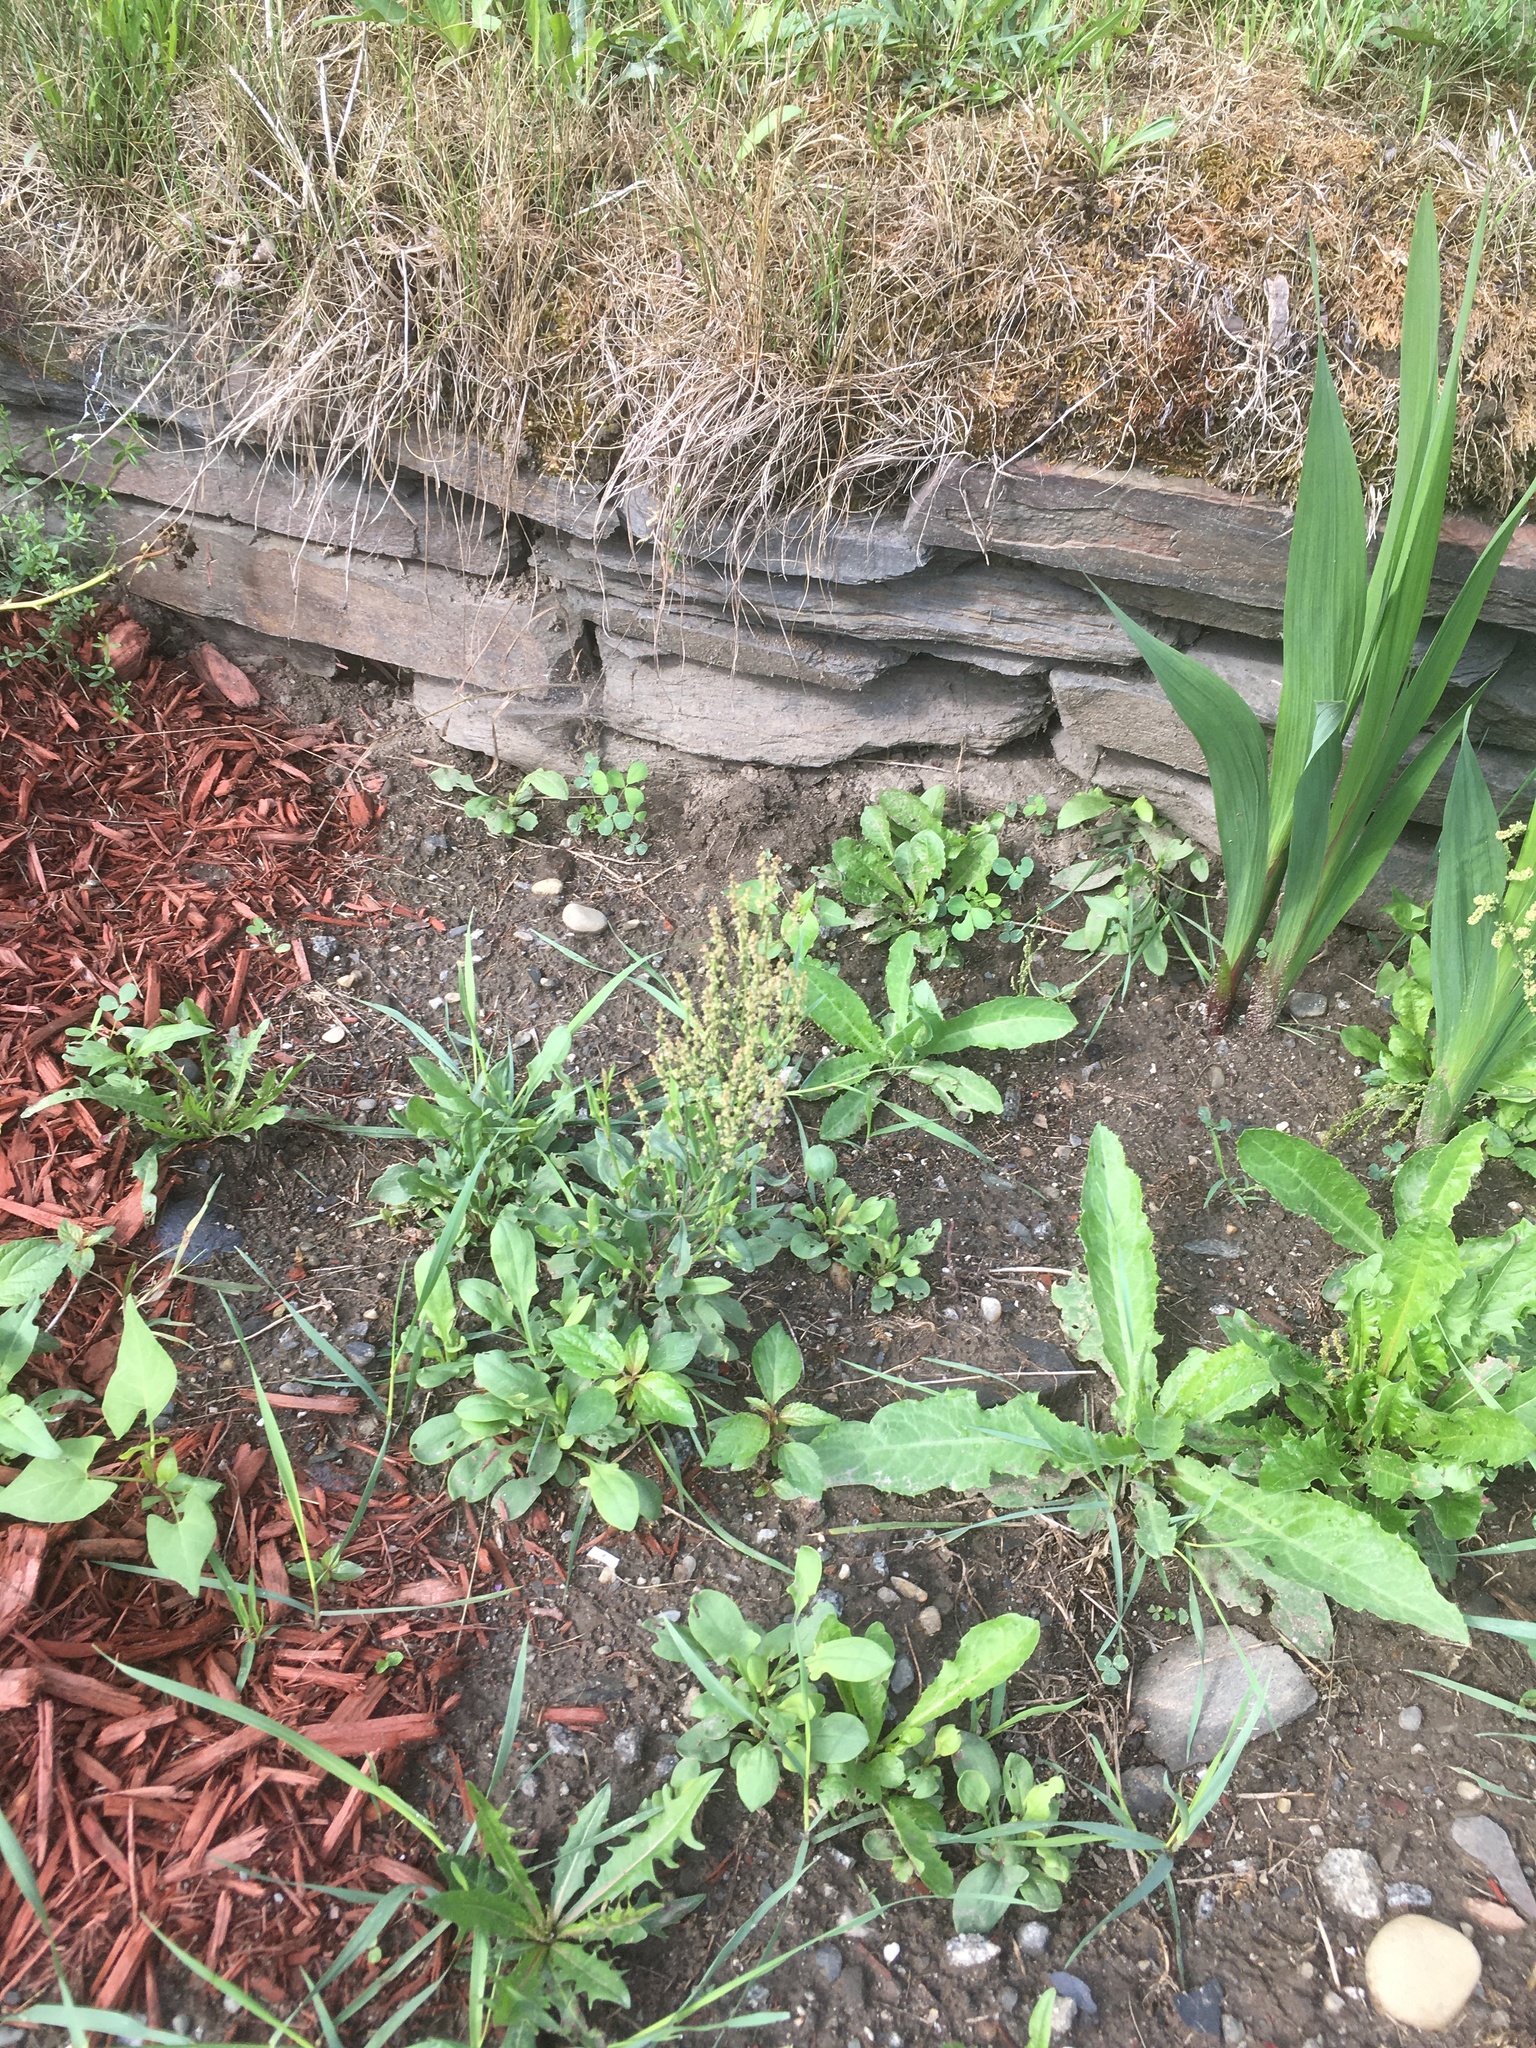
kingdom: Plantae
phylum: Tracheophyta
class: Magnoliopsida
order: Caryophyllales
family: Polygonaceae
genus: Rumex
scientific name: Rumex acetosella
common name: Common sheep sorrel
